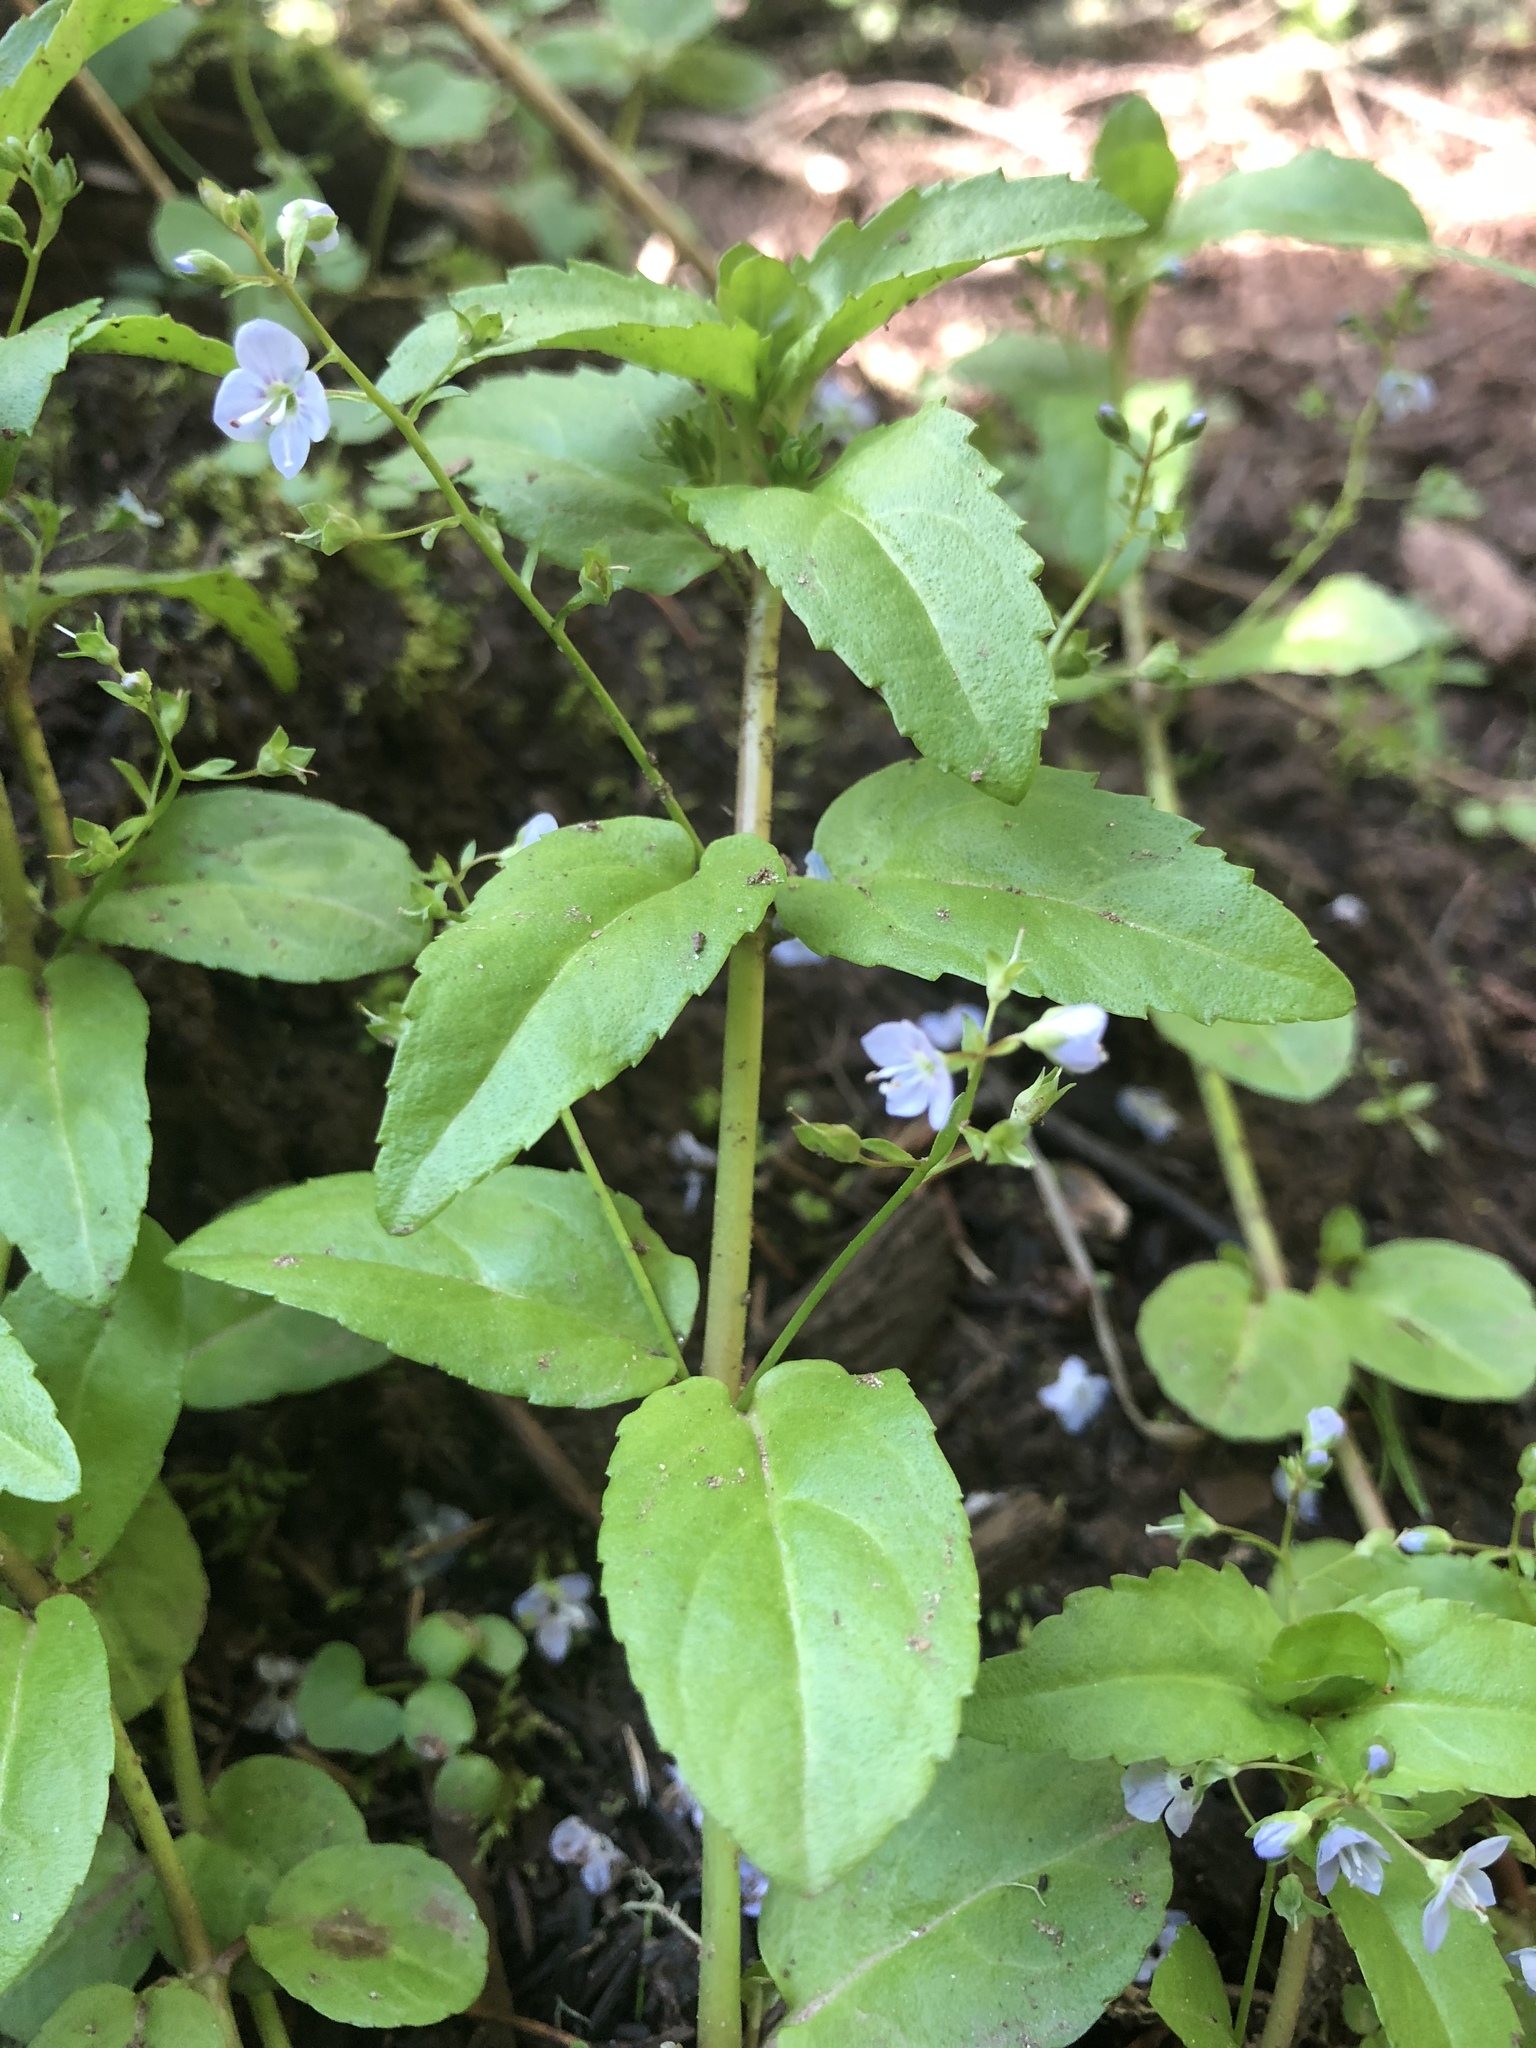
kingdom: Plantae
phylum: Tracheophyta
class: Magnoliopsida
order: Lamiales
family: Plantaginaceae
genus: Veronica
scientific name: Veronica americana
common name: American brooklime
